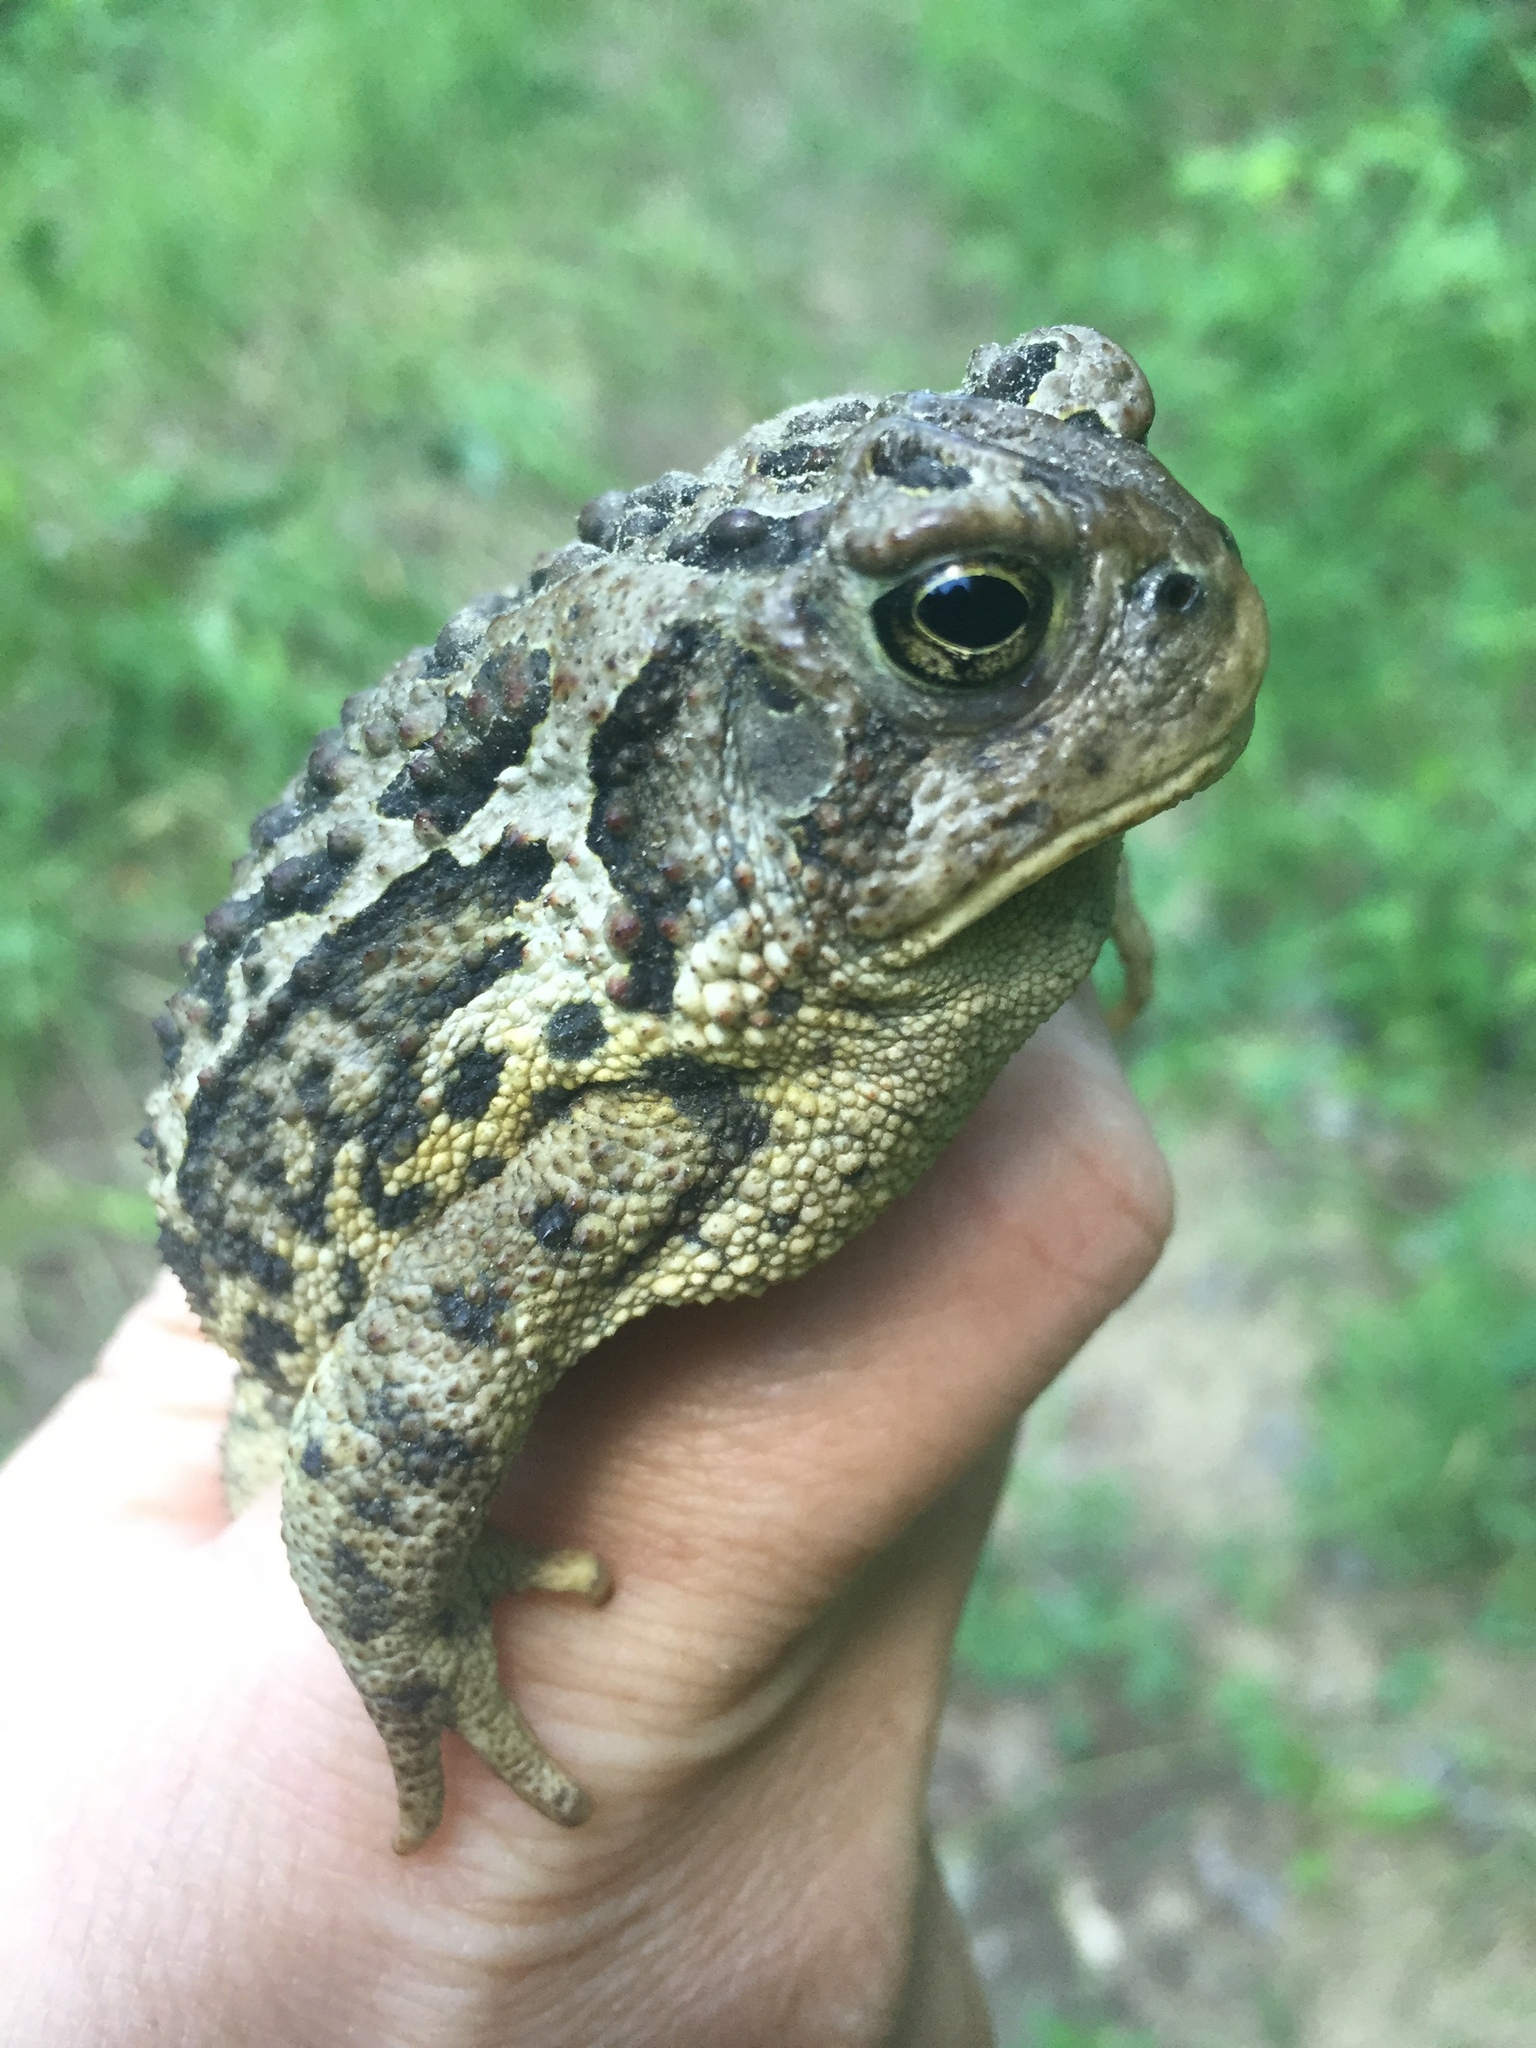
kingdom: Animalia
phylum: Chordata
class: Amphibia
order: Anura
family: Bufonidae
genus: Anaxyrus
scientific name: Anaxyrus hemiophrys
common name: Canadian toad
